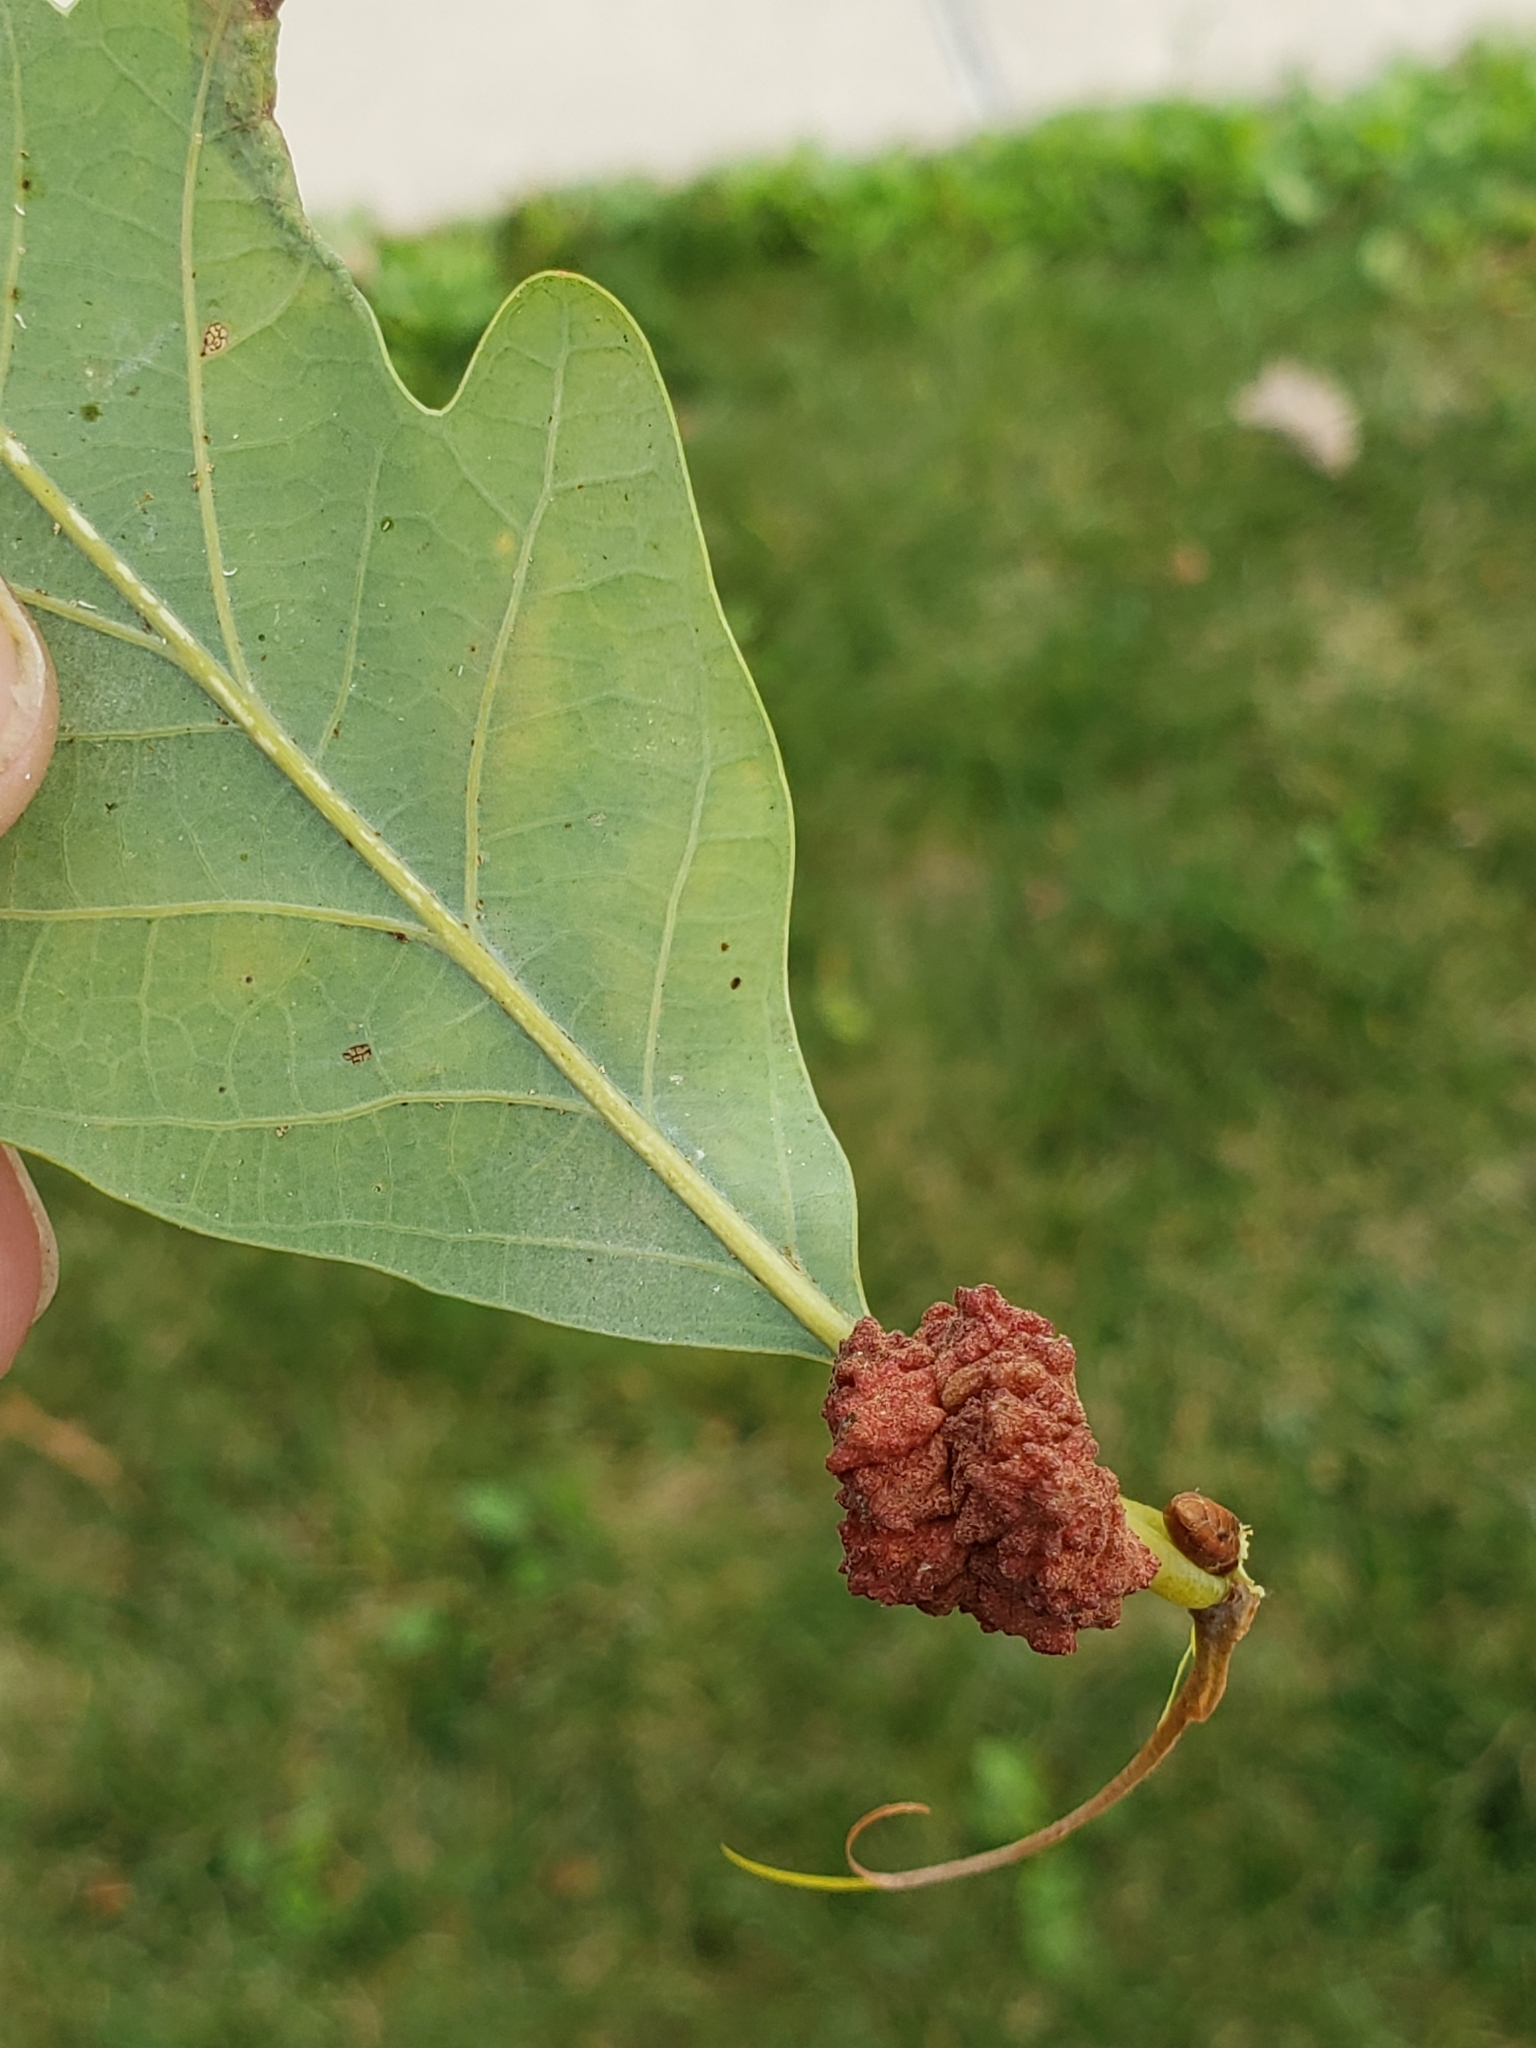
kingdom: Animalia
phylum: Arthropoda
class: Insecta
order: Hymenoptera
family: Cynipidae
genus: Andricus
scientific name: Andricus
